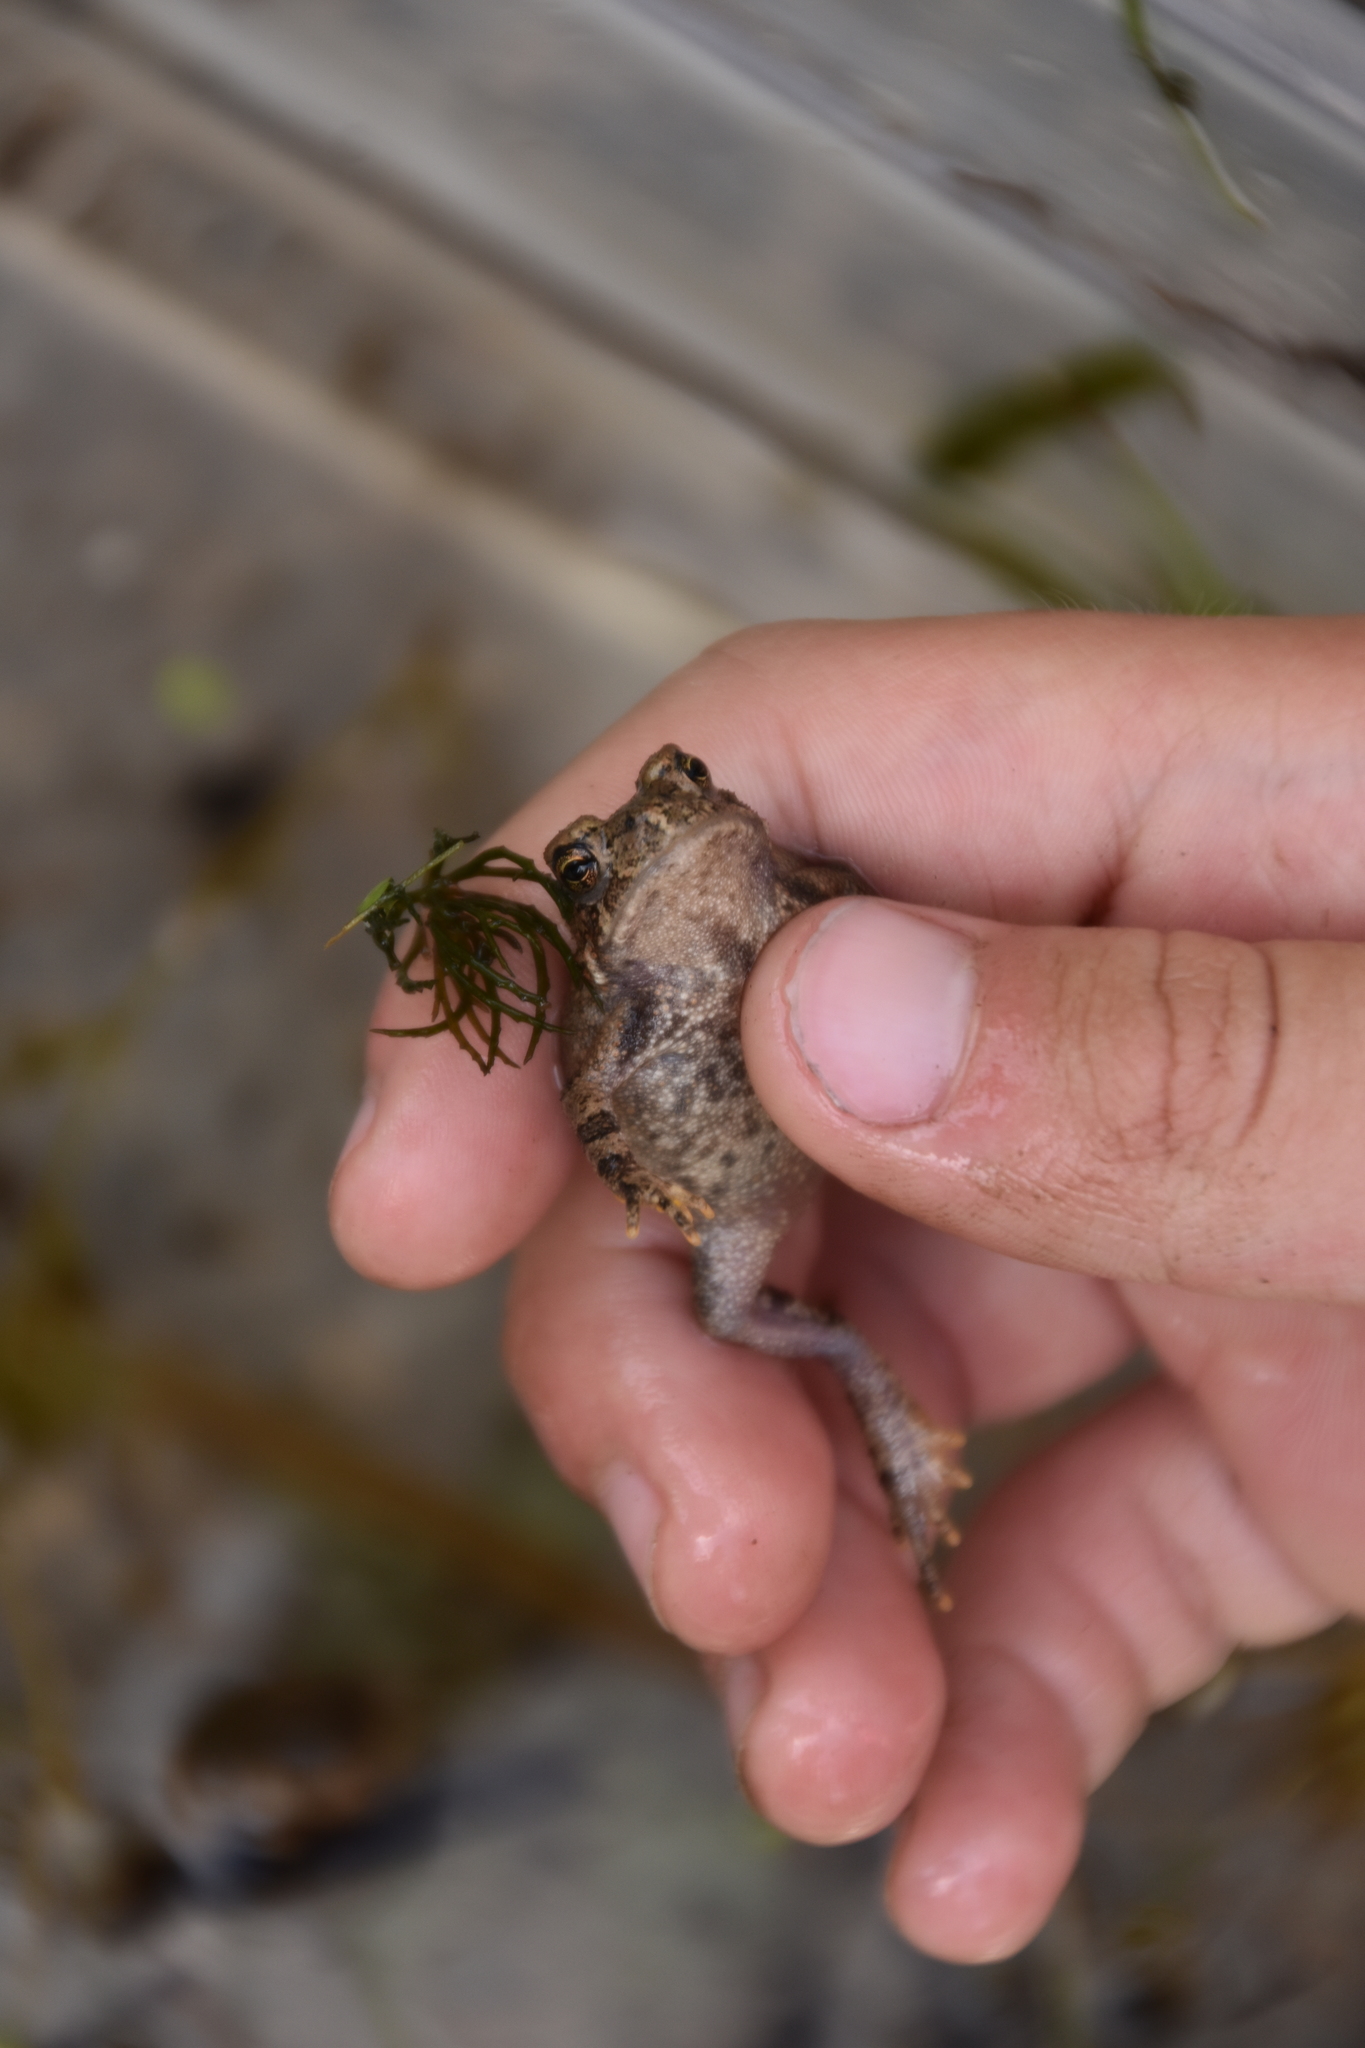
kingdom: Animalia
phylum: Chordata
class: Amphibia
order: Anura
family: Bufonidae
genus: Anaxyrus
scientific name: Anaxyrus americanus
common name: American toad
